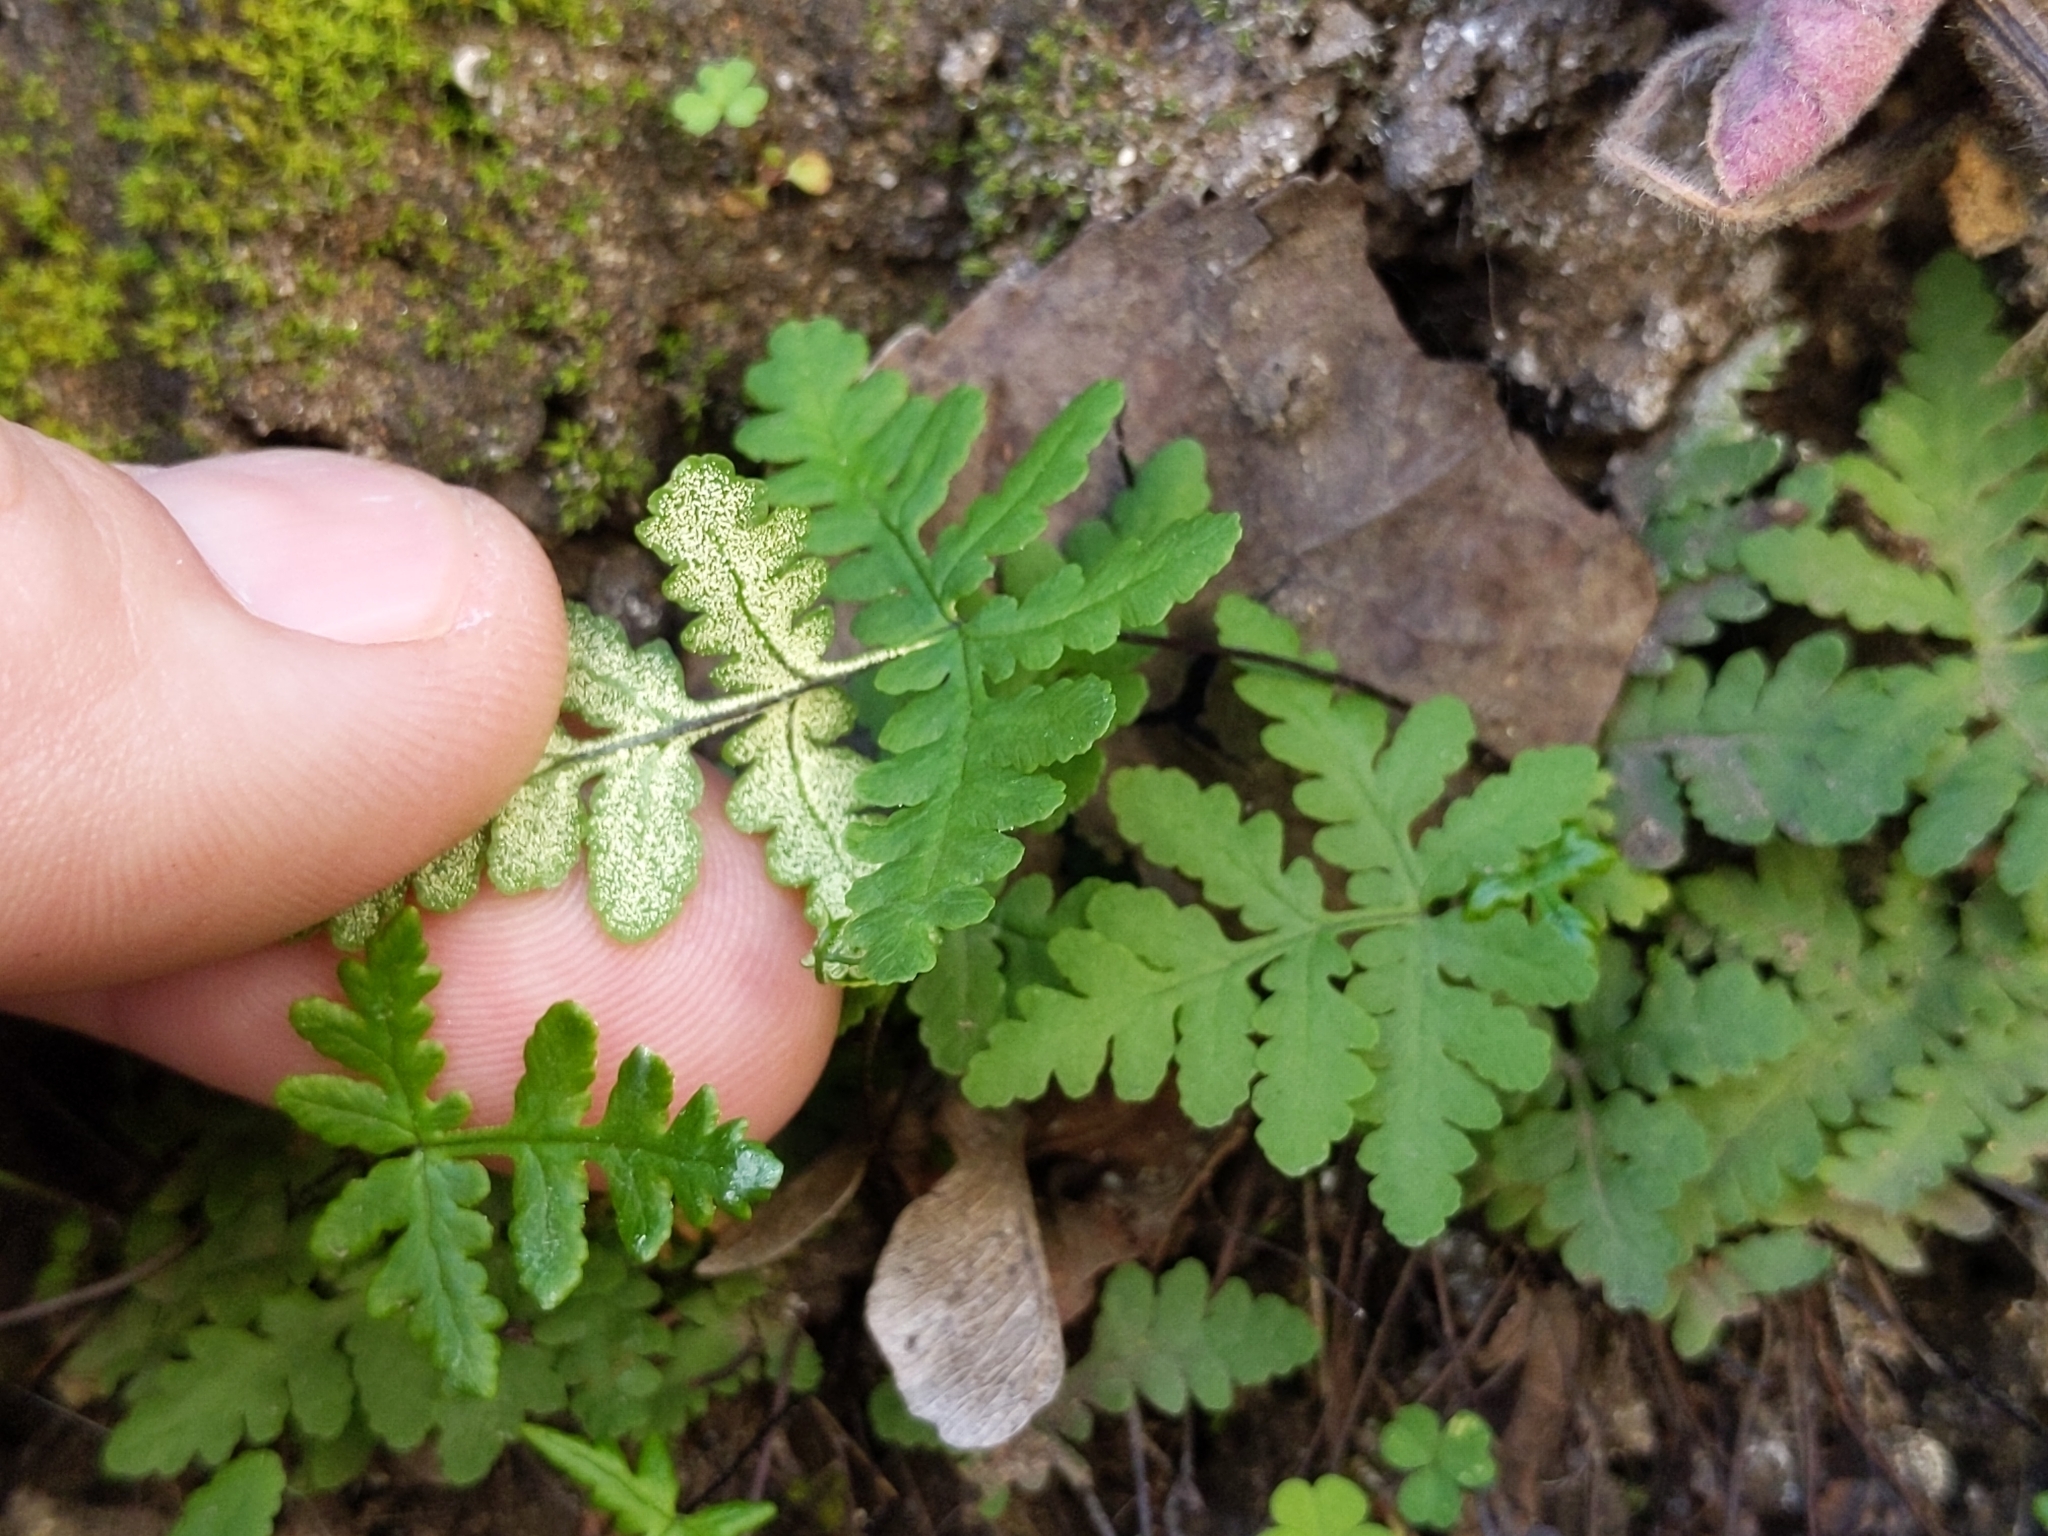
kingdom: Plantae
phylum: Tracheophyta
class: Polypodiopsida
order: Polypodiales
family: Pteridaceae
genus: Pentagramma
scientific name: Pentagramma triangularis
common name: Gold fern
